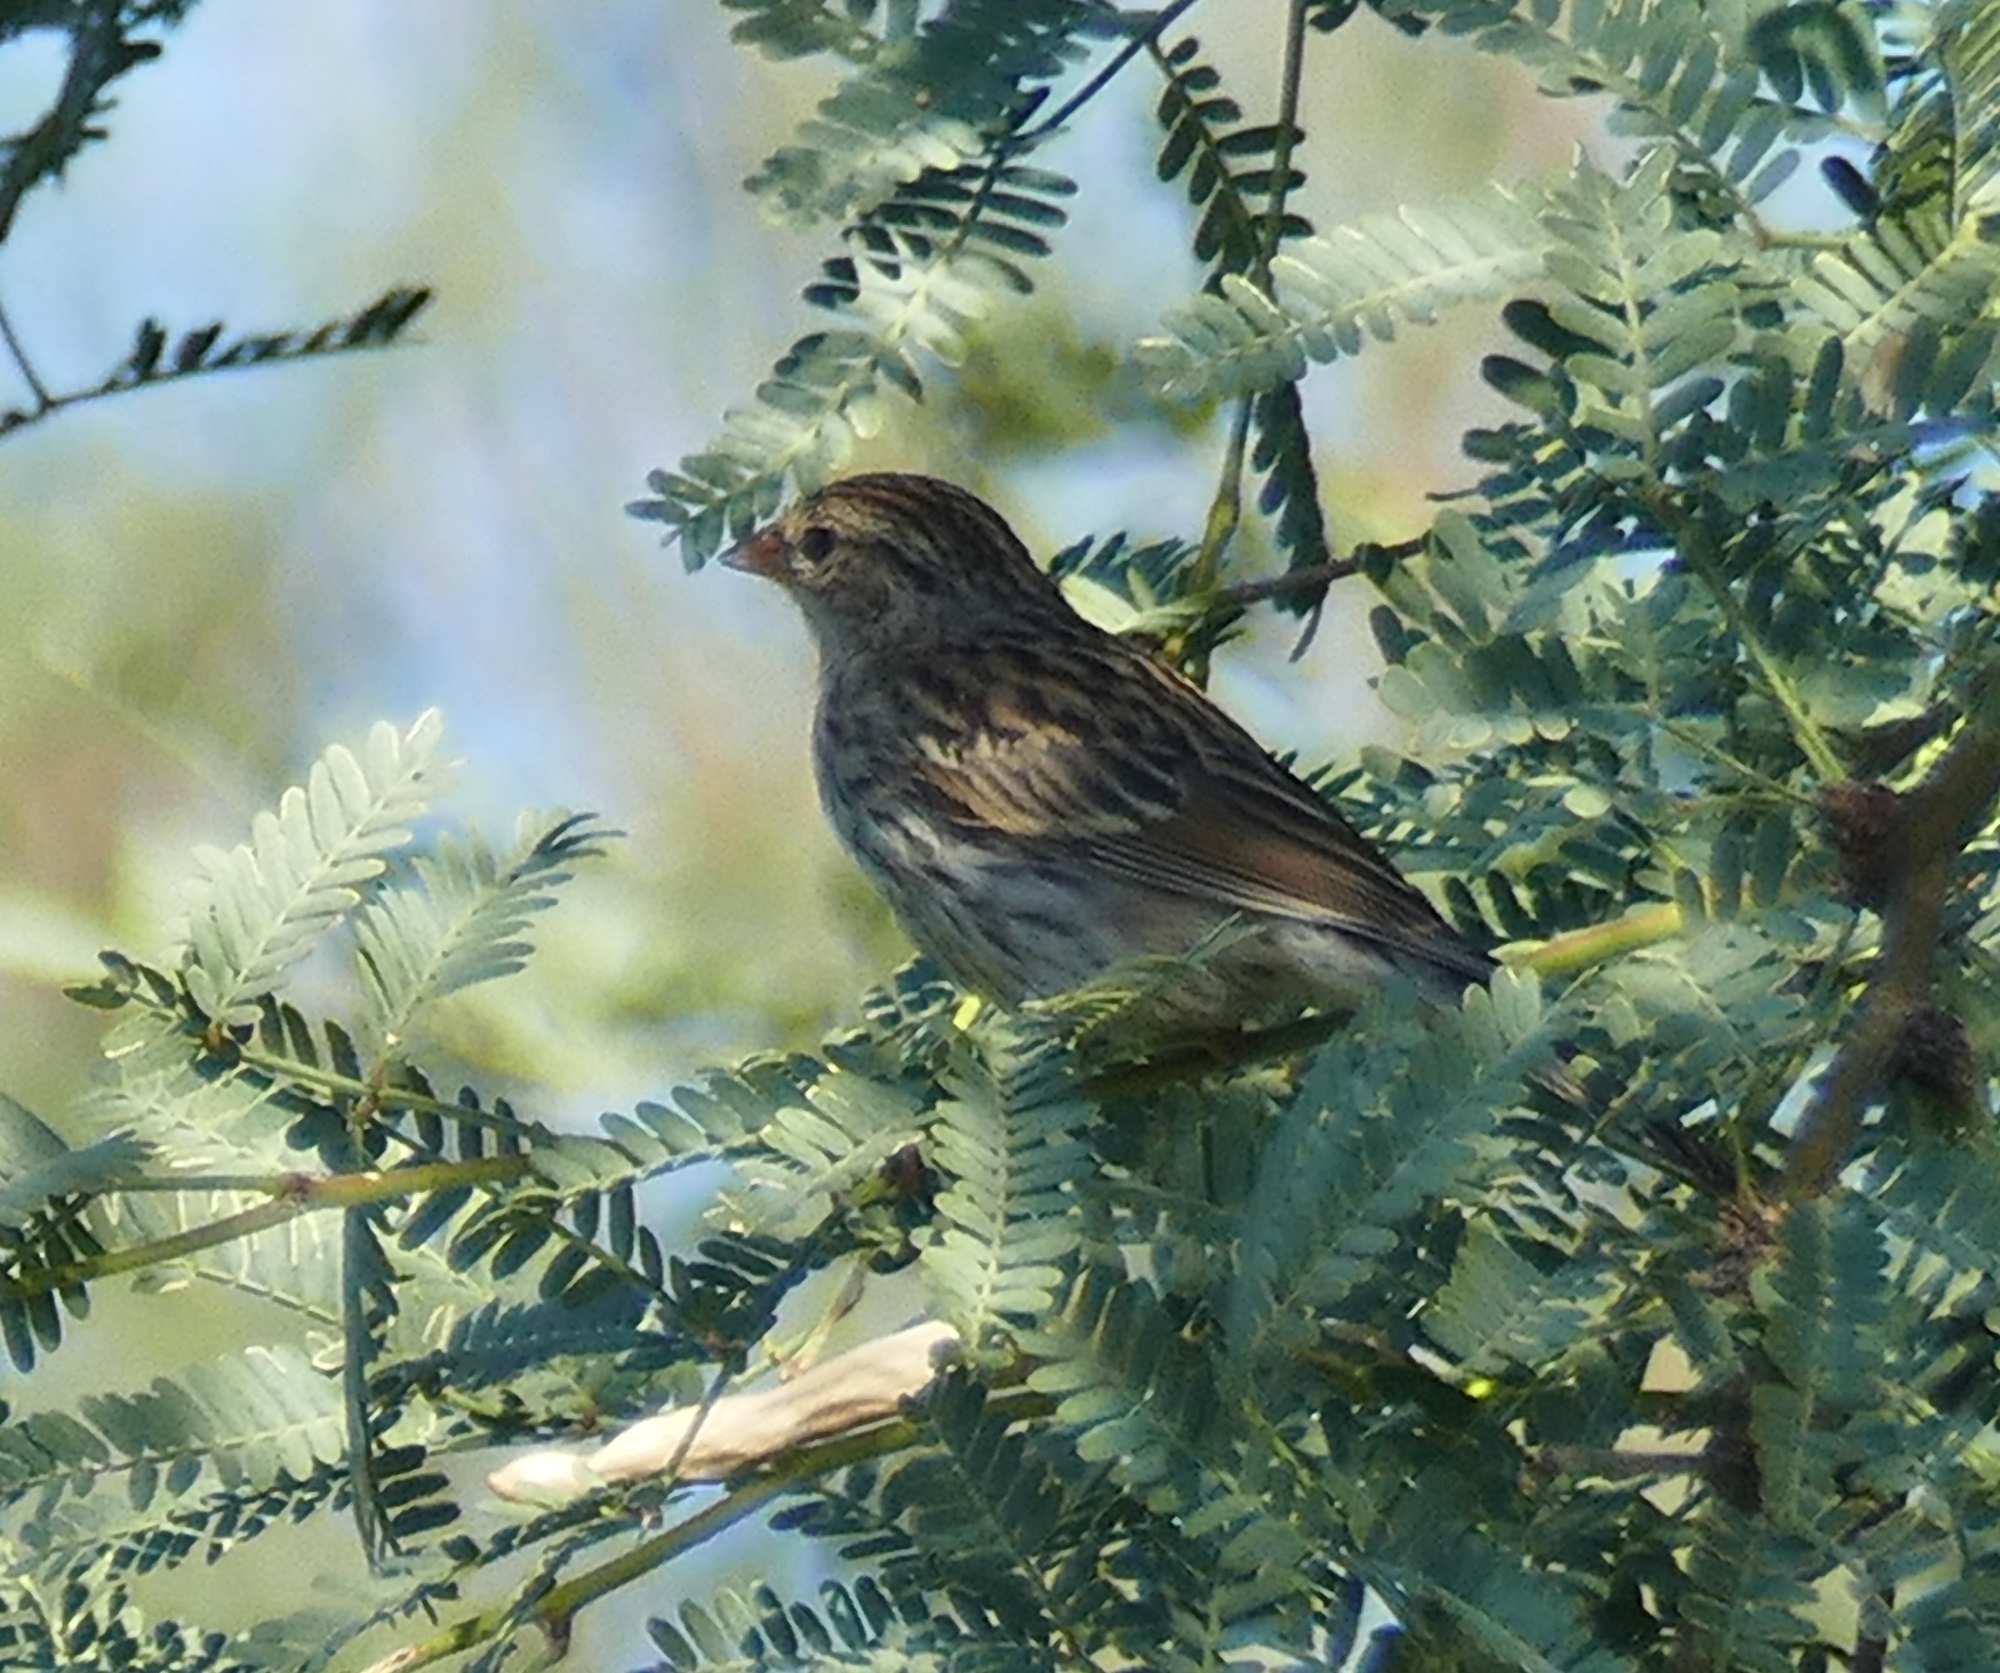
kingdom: Animalia
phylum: Chordata
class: Aves
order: Passeriformes
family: Passerellidae
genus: Spizella
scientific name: Spizella passerina
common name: Chipping sparrow
